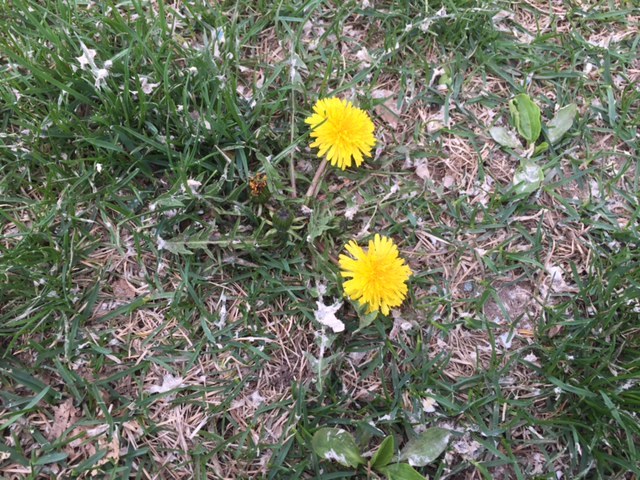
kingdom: Plantae
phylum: Tracheophyta
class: Magnoliopsida
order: Asterales
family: Asteraceae
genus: Taraxacum
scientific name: Taraxacum
